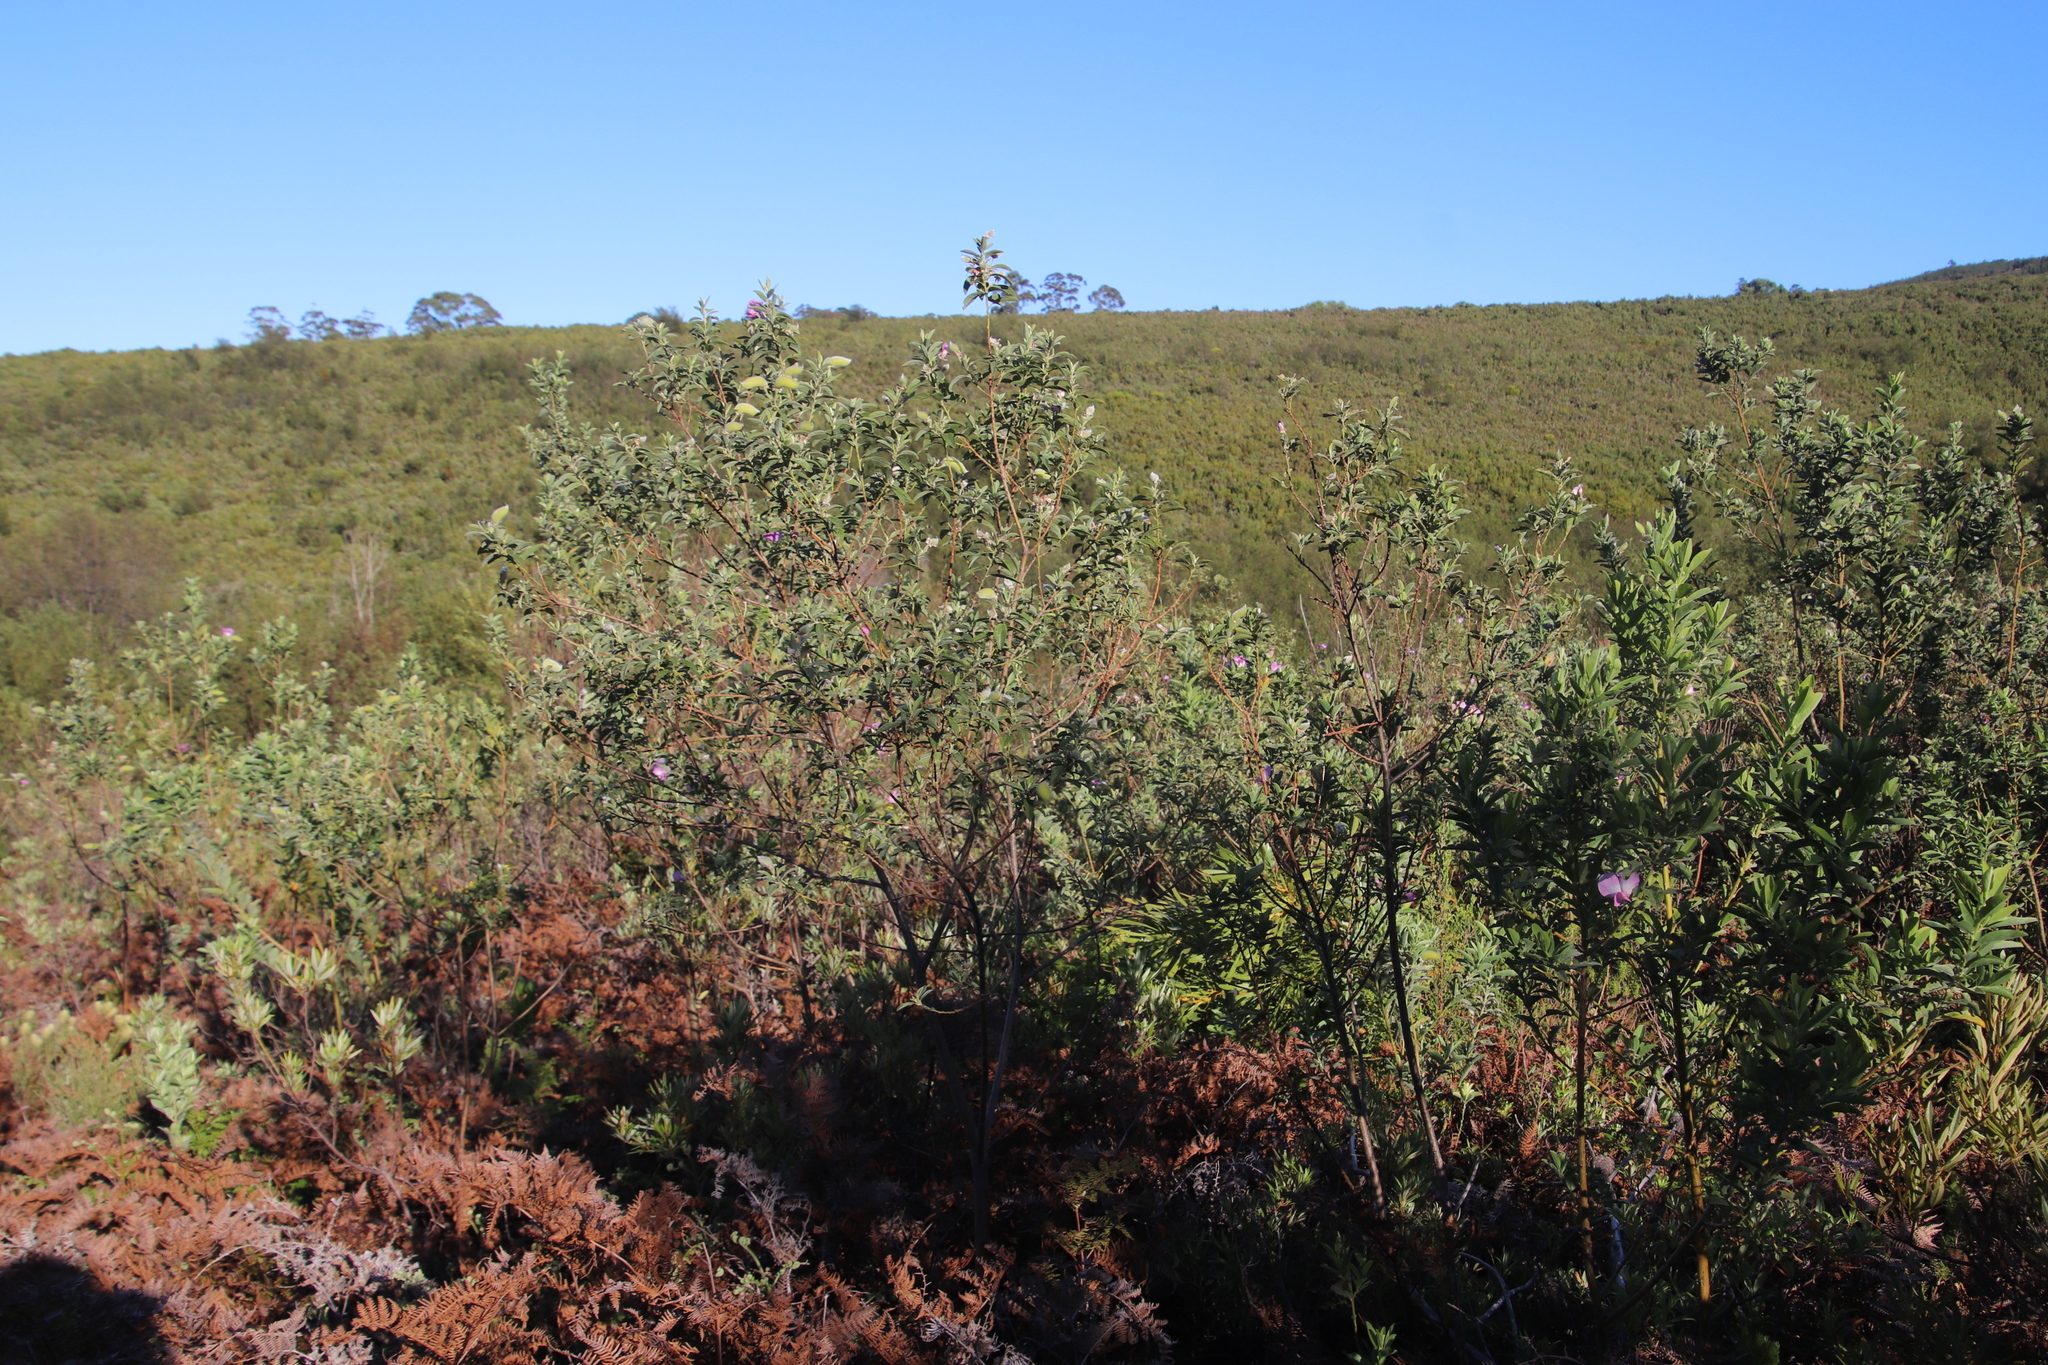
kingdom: Plantae
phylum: Tracheophyta
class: Magnoliopsida
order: Fabales
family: Fabaceae
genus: Podalyria
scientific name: Podalyria calyptrata
